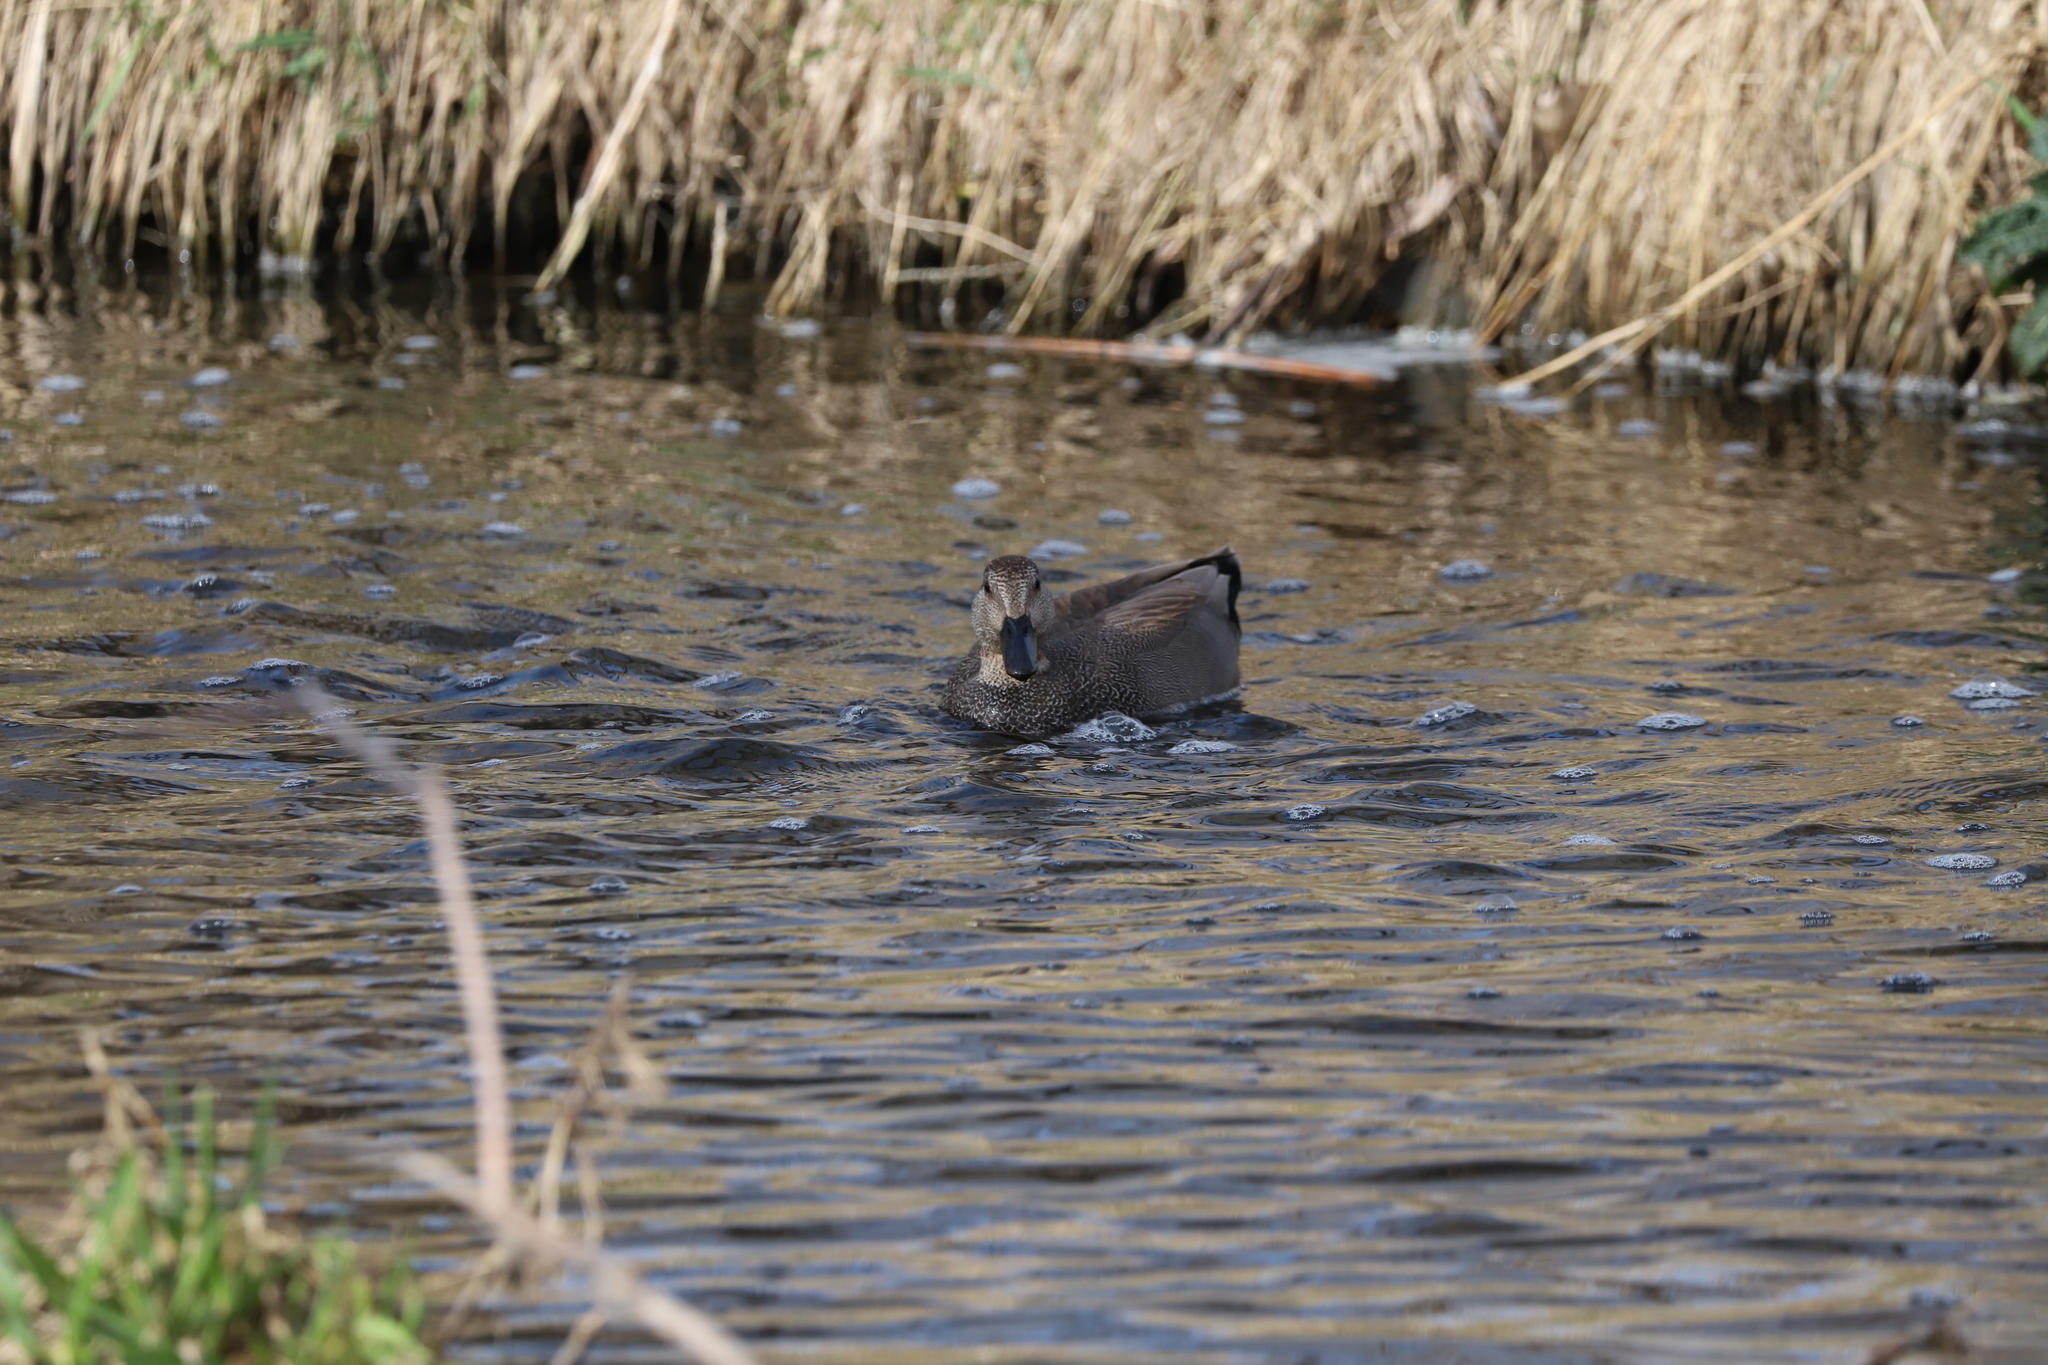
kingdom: Animalia
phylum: Chordata
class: Aves
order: Anseriformes
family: Anatidae
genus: Mareca
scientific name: Mareca strepera
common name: Gadwall
